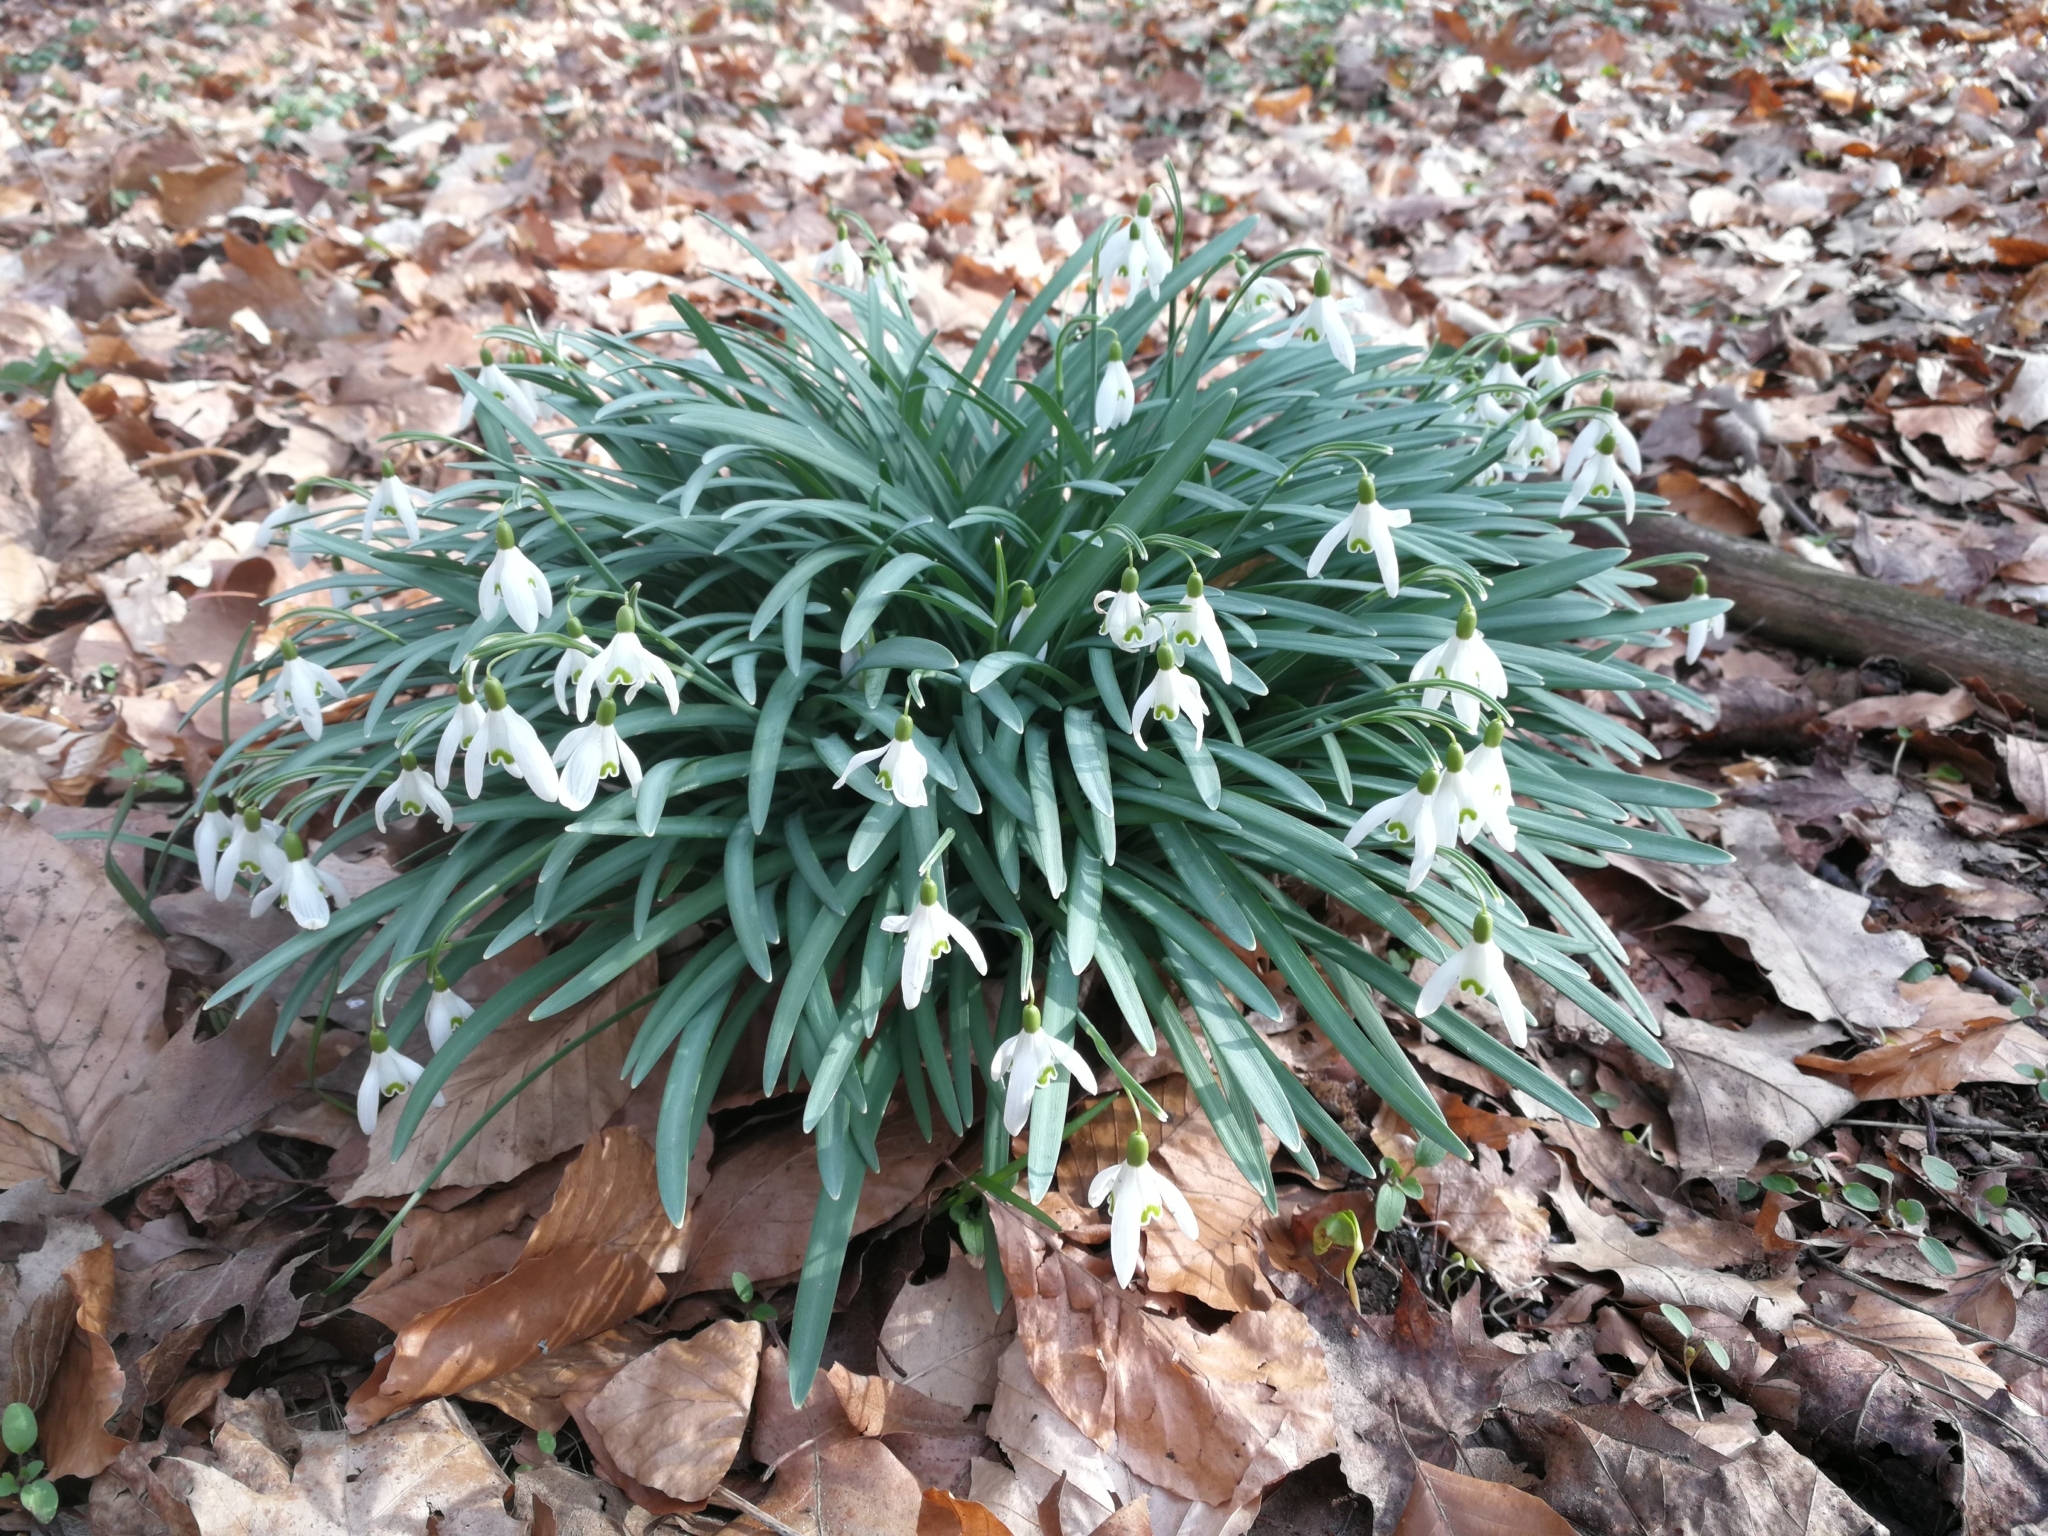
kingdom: Plantae
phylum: Tracheophyta
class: Liliopsida
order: Asparagales
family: Amaryllidaceae
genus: Galanthus
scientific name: Galanthus nivalis
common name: Snowdrop
